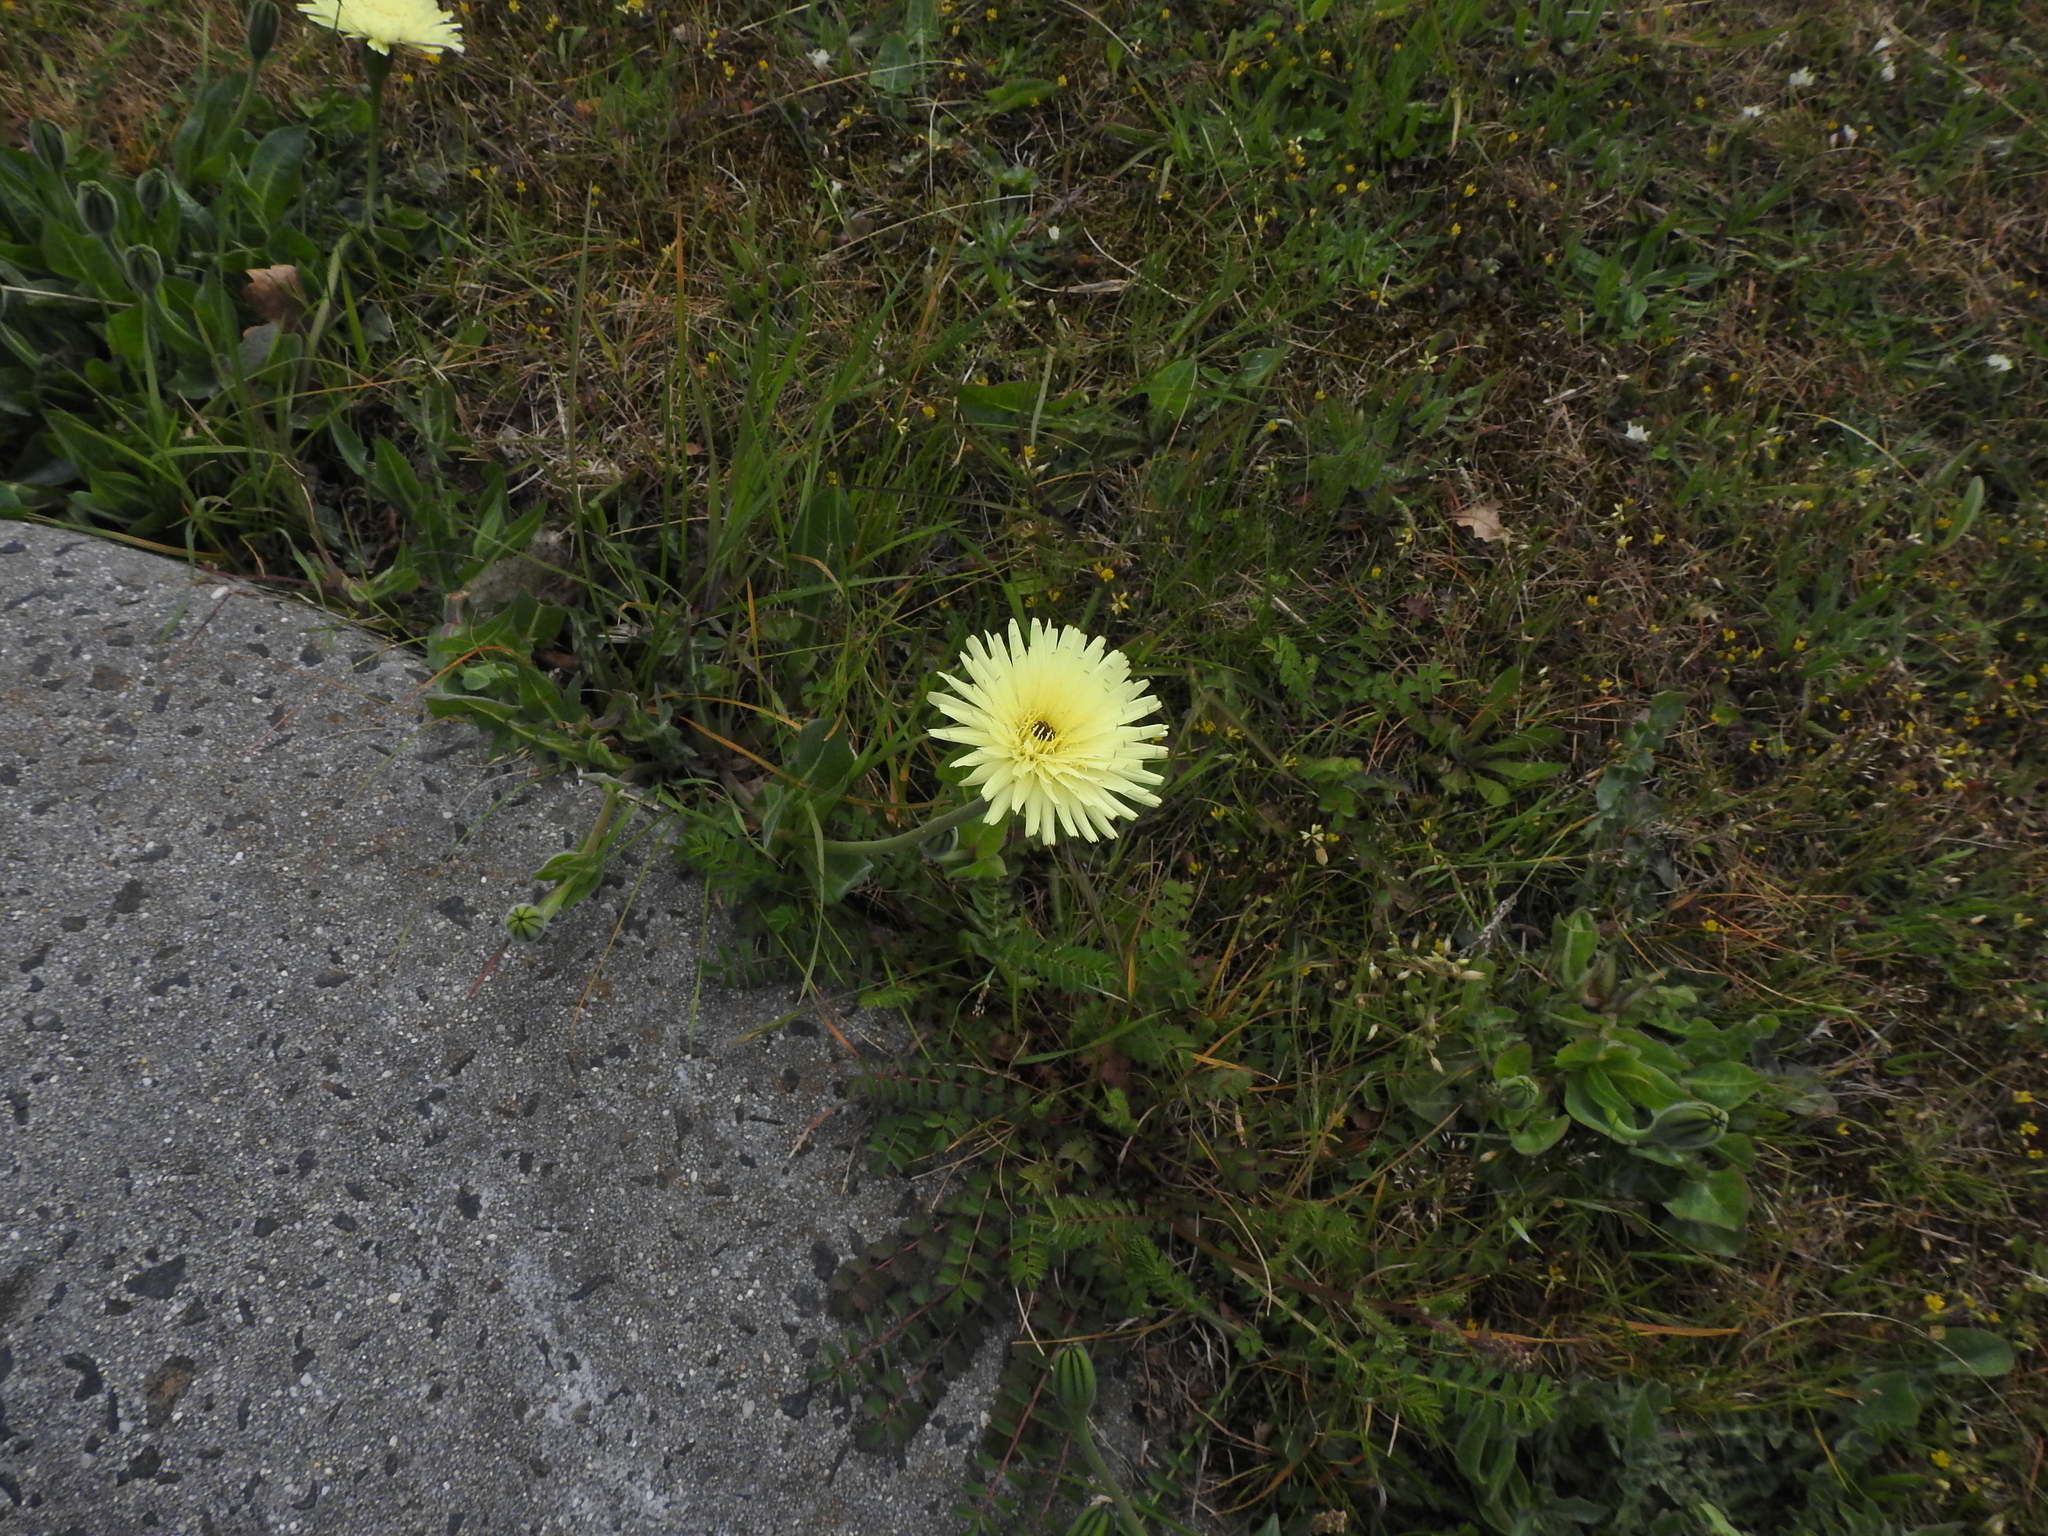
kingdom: Plantae
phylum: Tracheophyta
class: Magnoliopsida
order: Asterales
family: Asteraceae
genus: Urospermum
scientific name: Urospermum dalechampii
